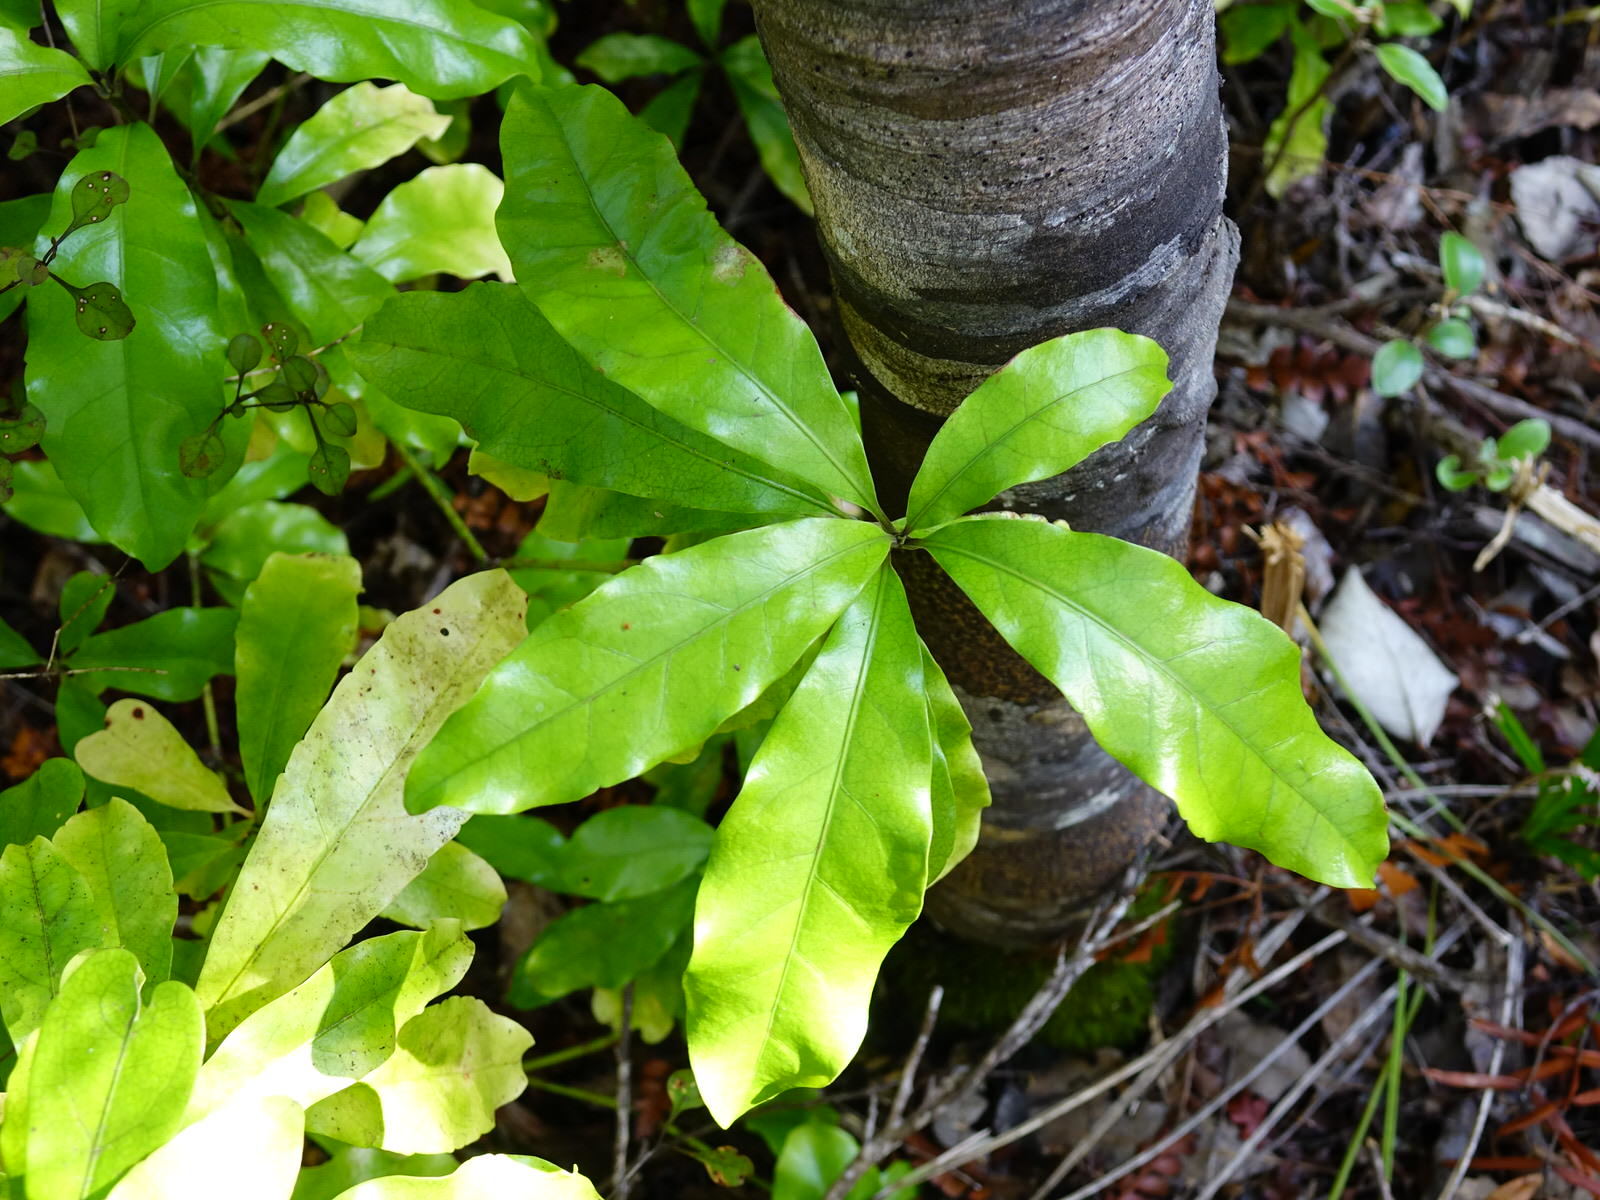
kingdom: Plantae
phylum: Tracheophyta
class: Magnoliopsida
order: Asterales
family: Alseuosmiaceae
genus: Alseuosmia
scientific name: Alseuosmia macrophylla
